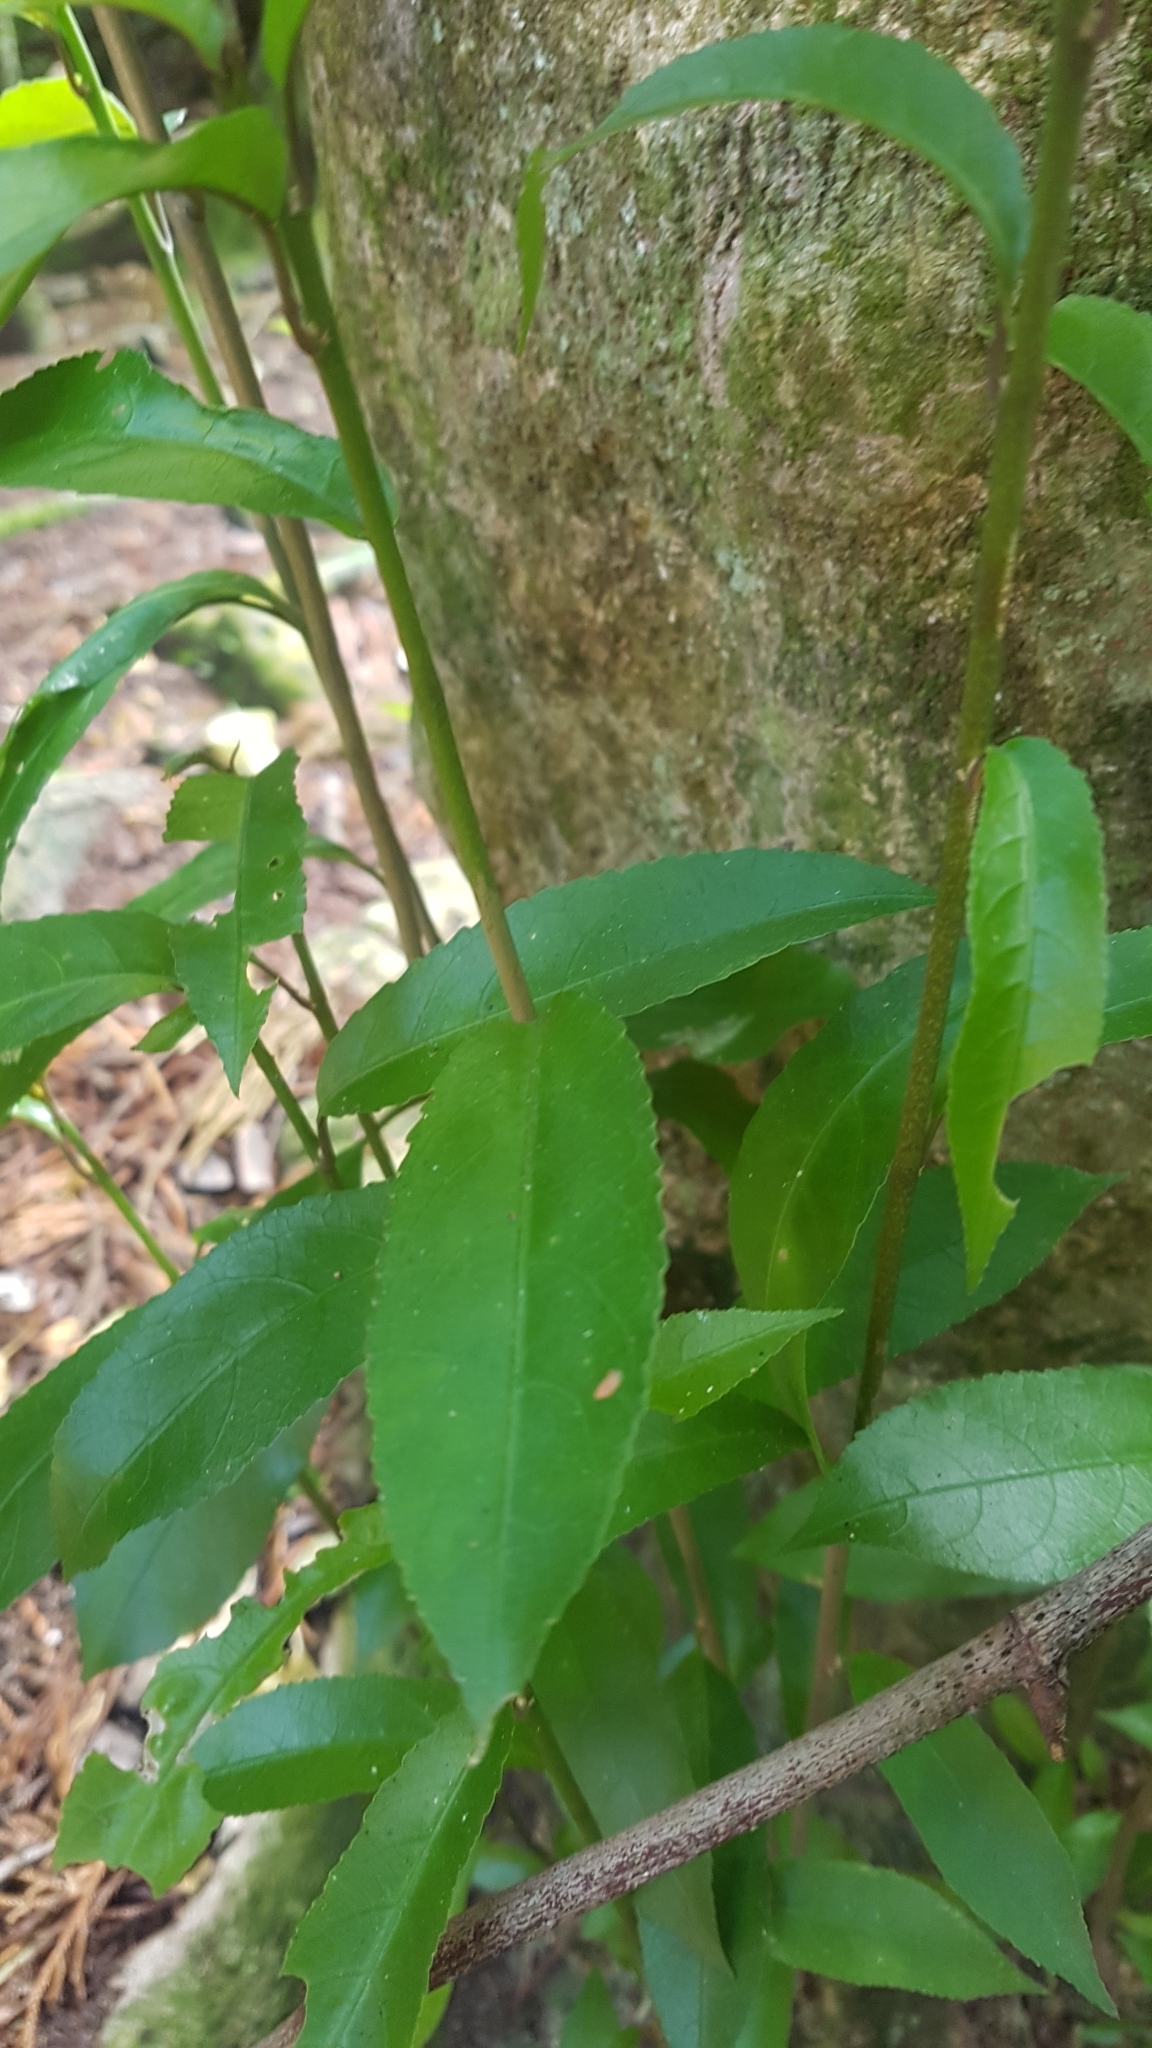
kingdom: Plantae
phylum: Tracheophyta
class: Magnoliopsida
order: Malpighiales
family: Violaceae
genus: Melicytus
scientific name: Melicytus ramiflorus
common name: Mahoe
